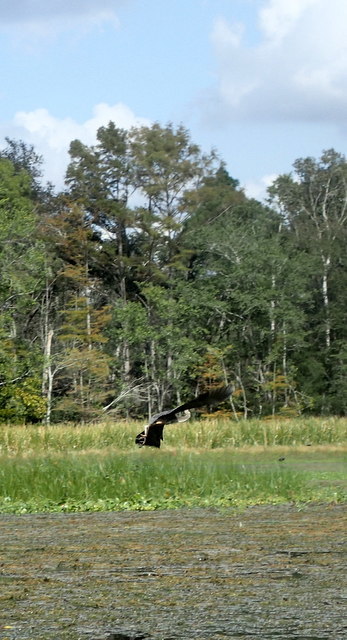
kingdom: Animalia
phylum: Chordata
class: Aves
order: Pelecaniformes
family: Ardeidae
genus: Ardea
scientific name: Ardea herodias
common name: Great blue heron
